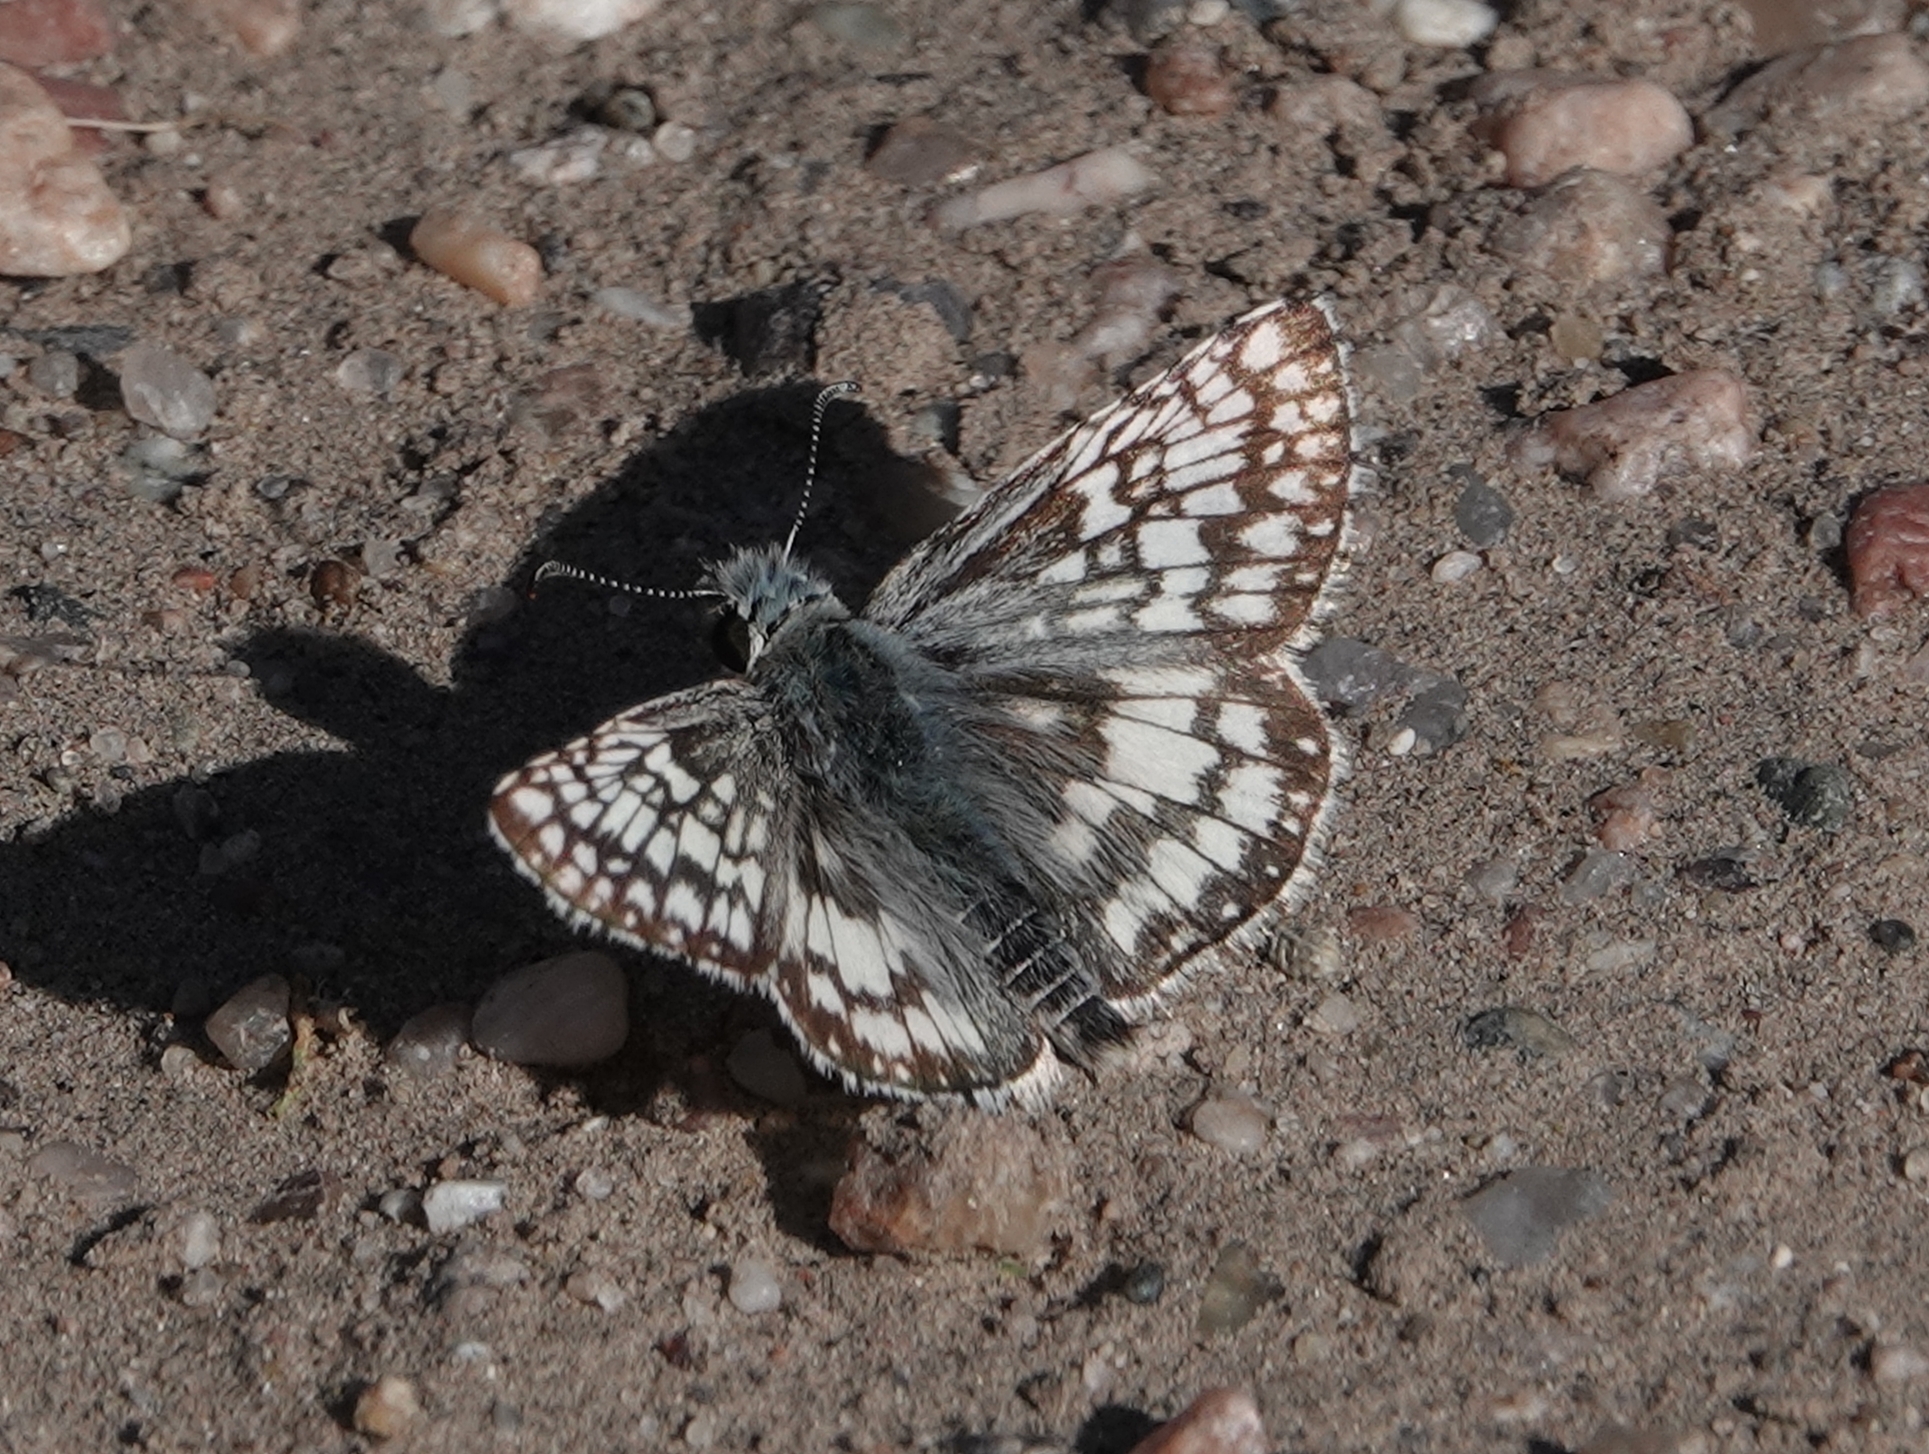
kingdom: Animalia
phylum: Arthropoda
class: Insecta
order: Lepidoptera
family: Hesperiidae
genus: Burnsius
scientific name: Burnsius communis
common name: Common checkered-skipper
